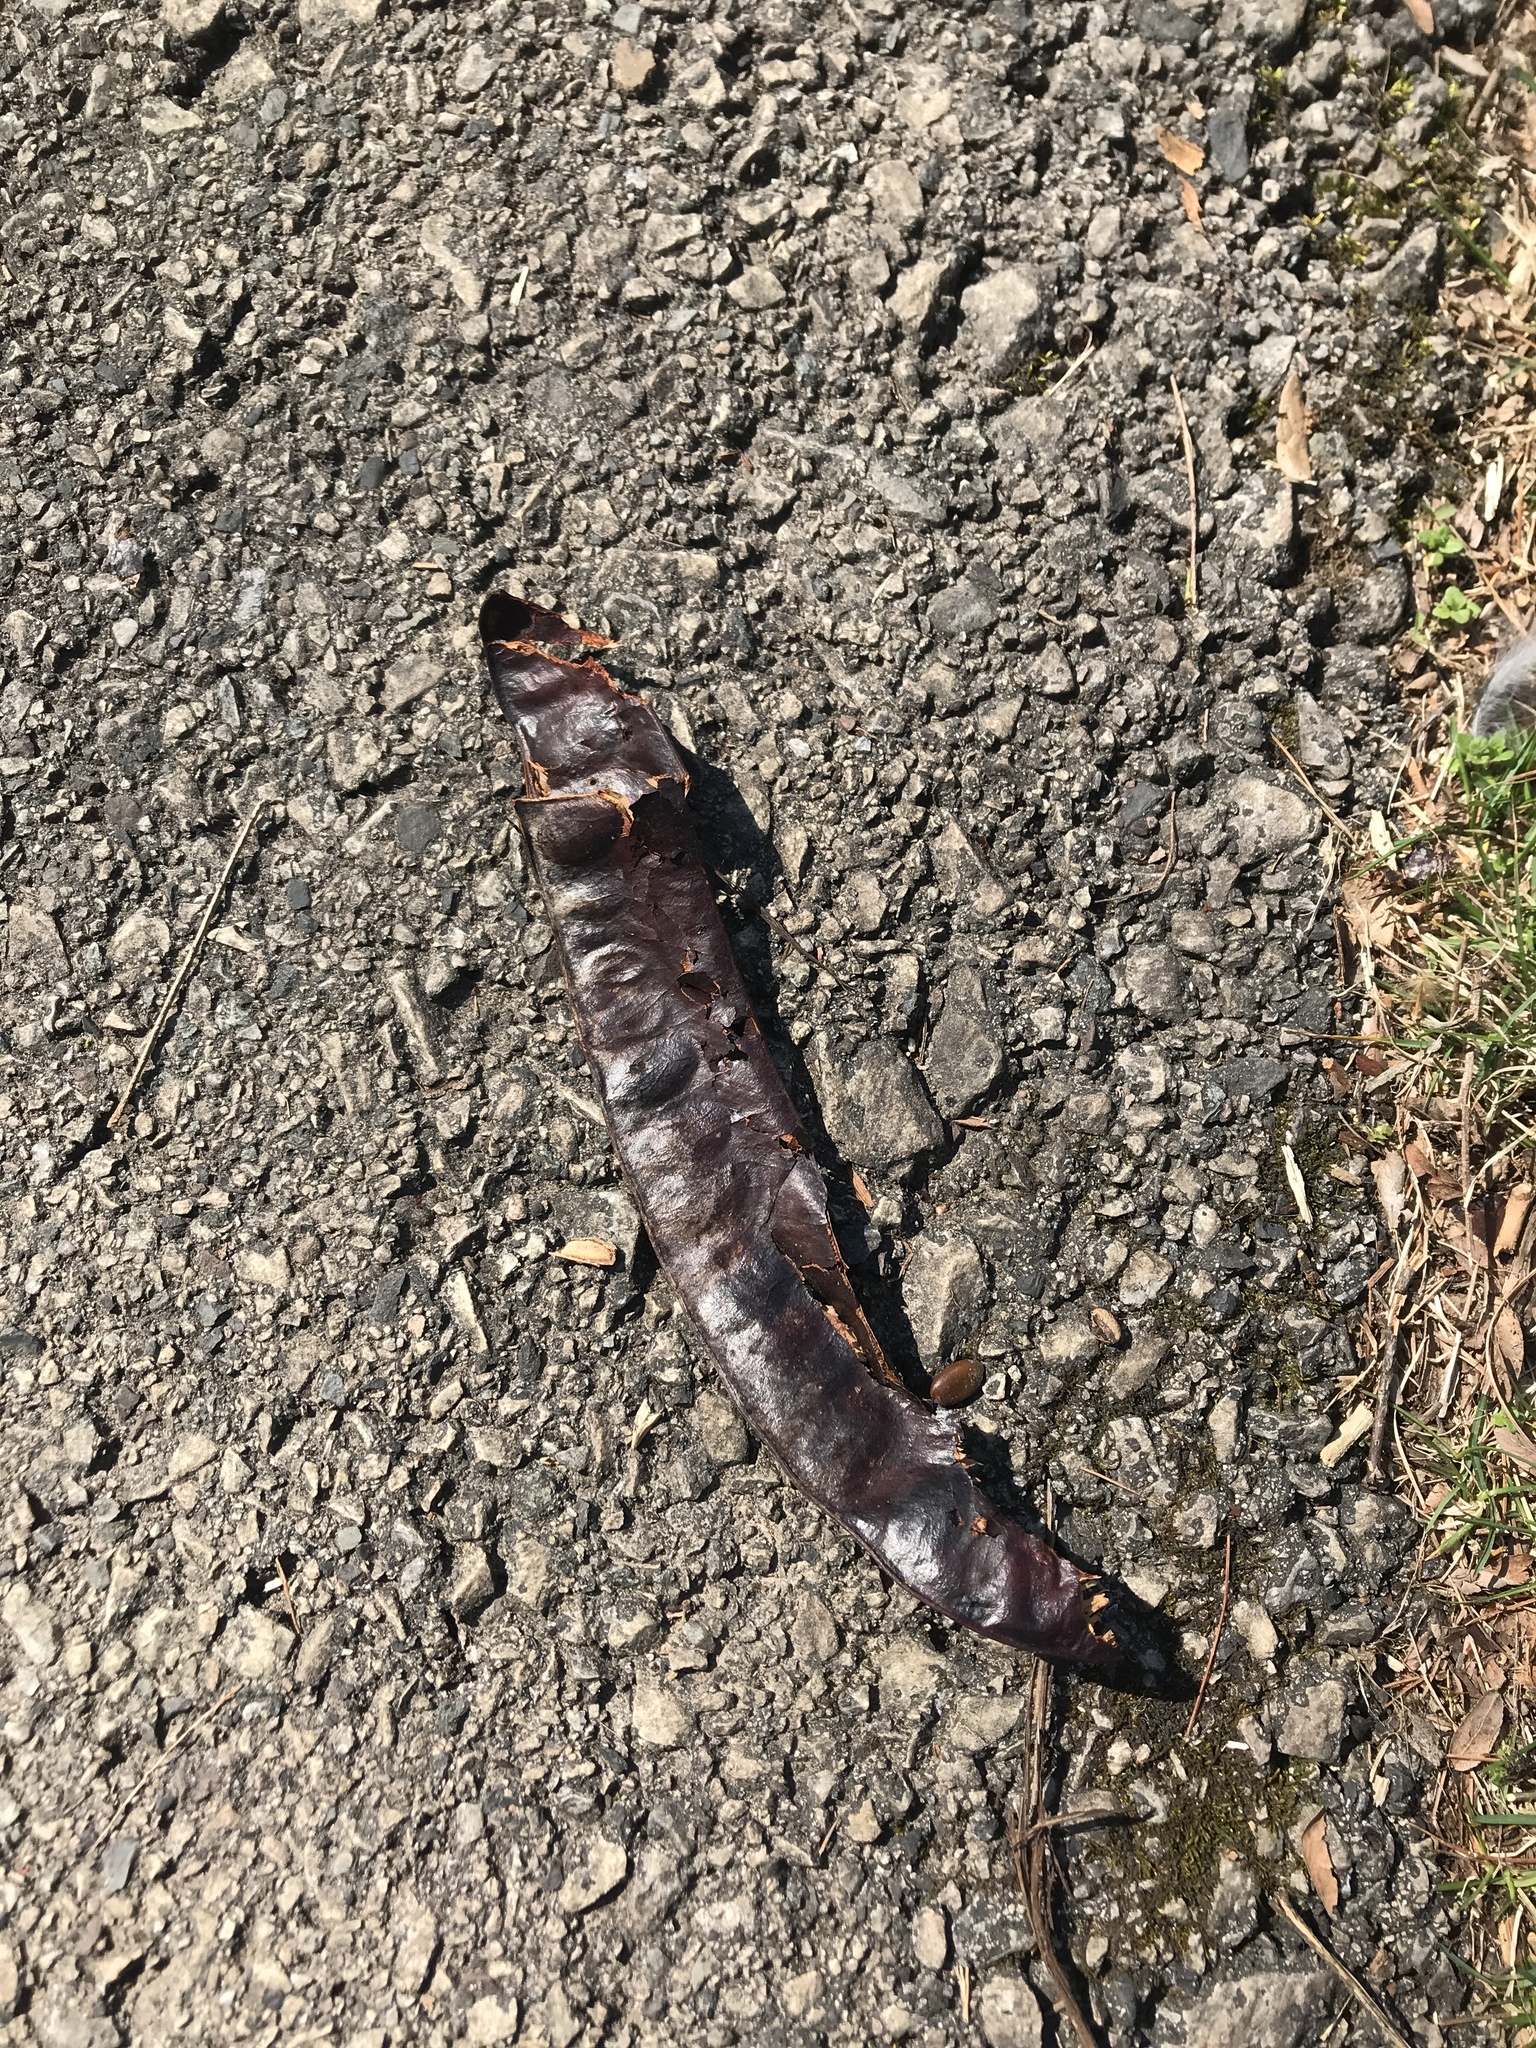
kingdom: Plantae
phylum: Tracheophyta
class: Magnoliopsida
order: Fabales
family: Fabaceae
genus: Gleditsia
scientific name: Gleditsia triacanthos
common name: Common honeylocust
